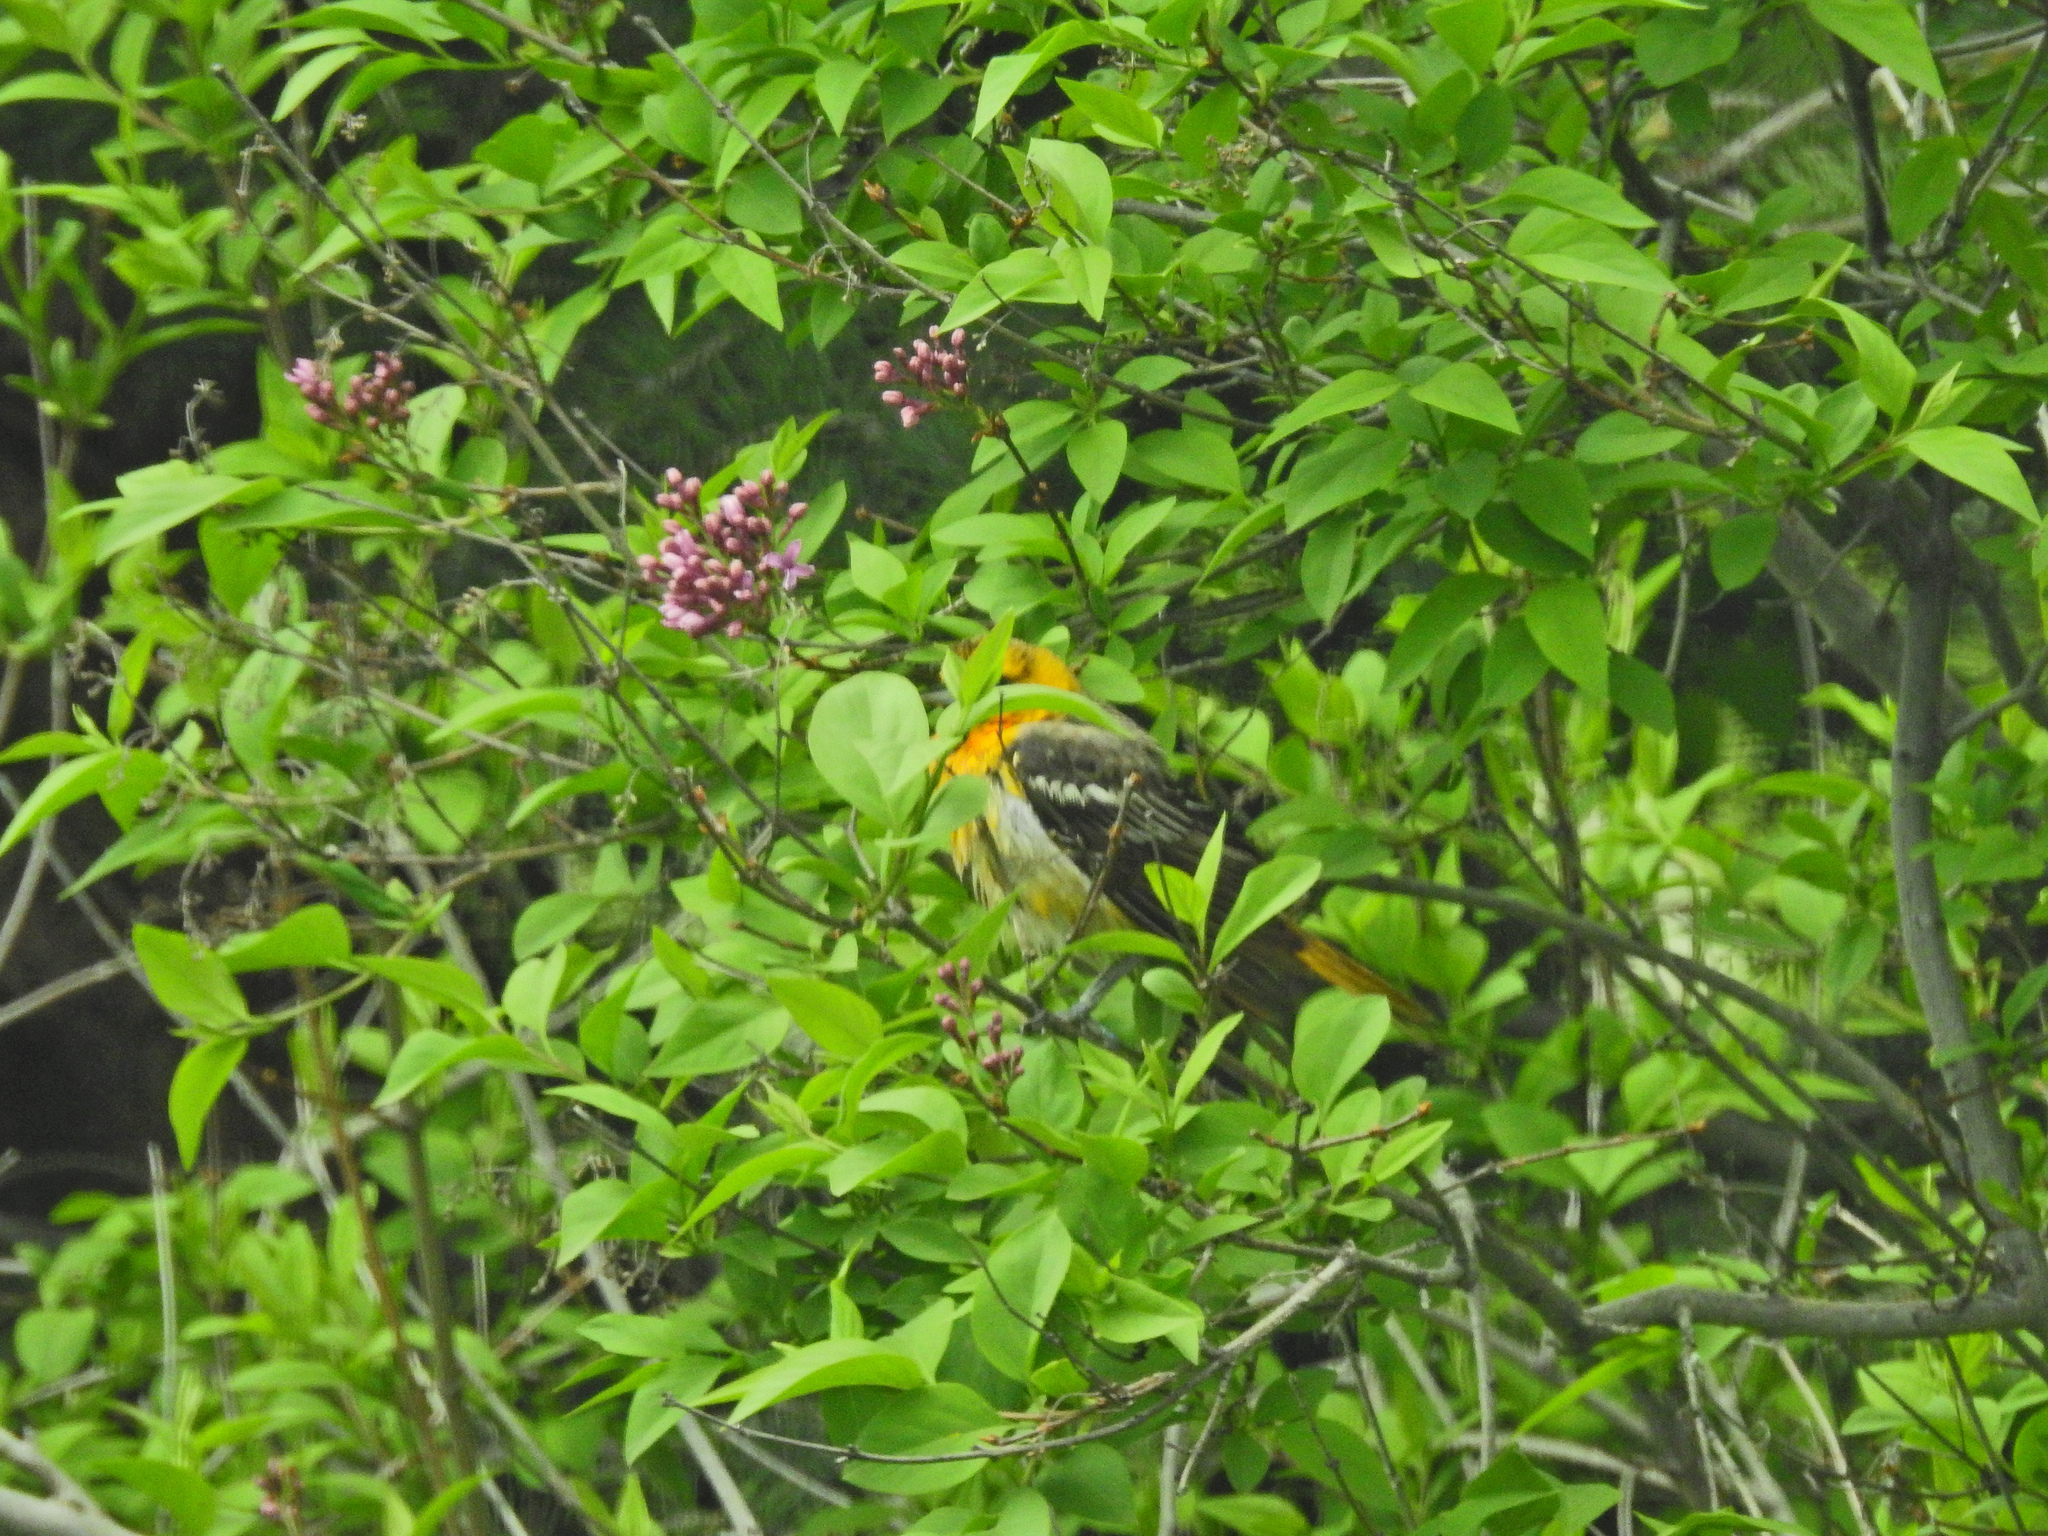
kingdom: Animalia
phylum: Chordata
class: Aves
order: Passeriformes
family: Icteridae
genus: Icterus
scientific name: Icterus bullockii
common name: Bullock's oriole
